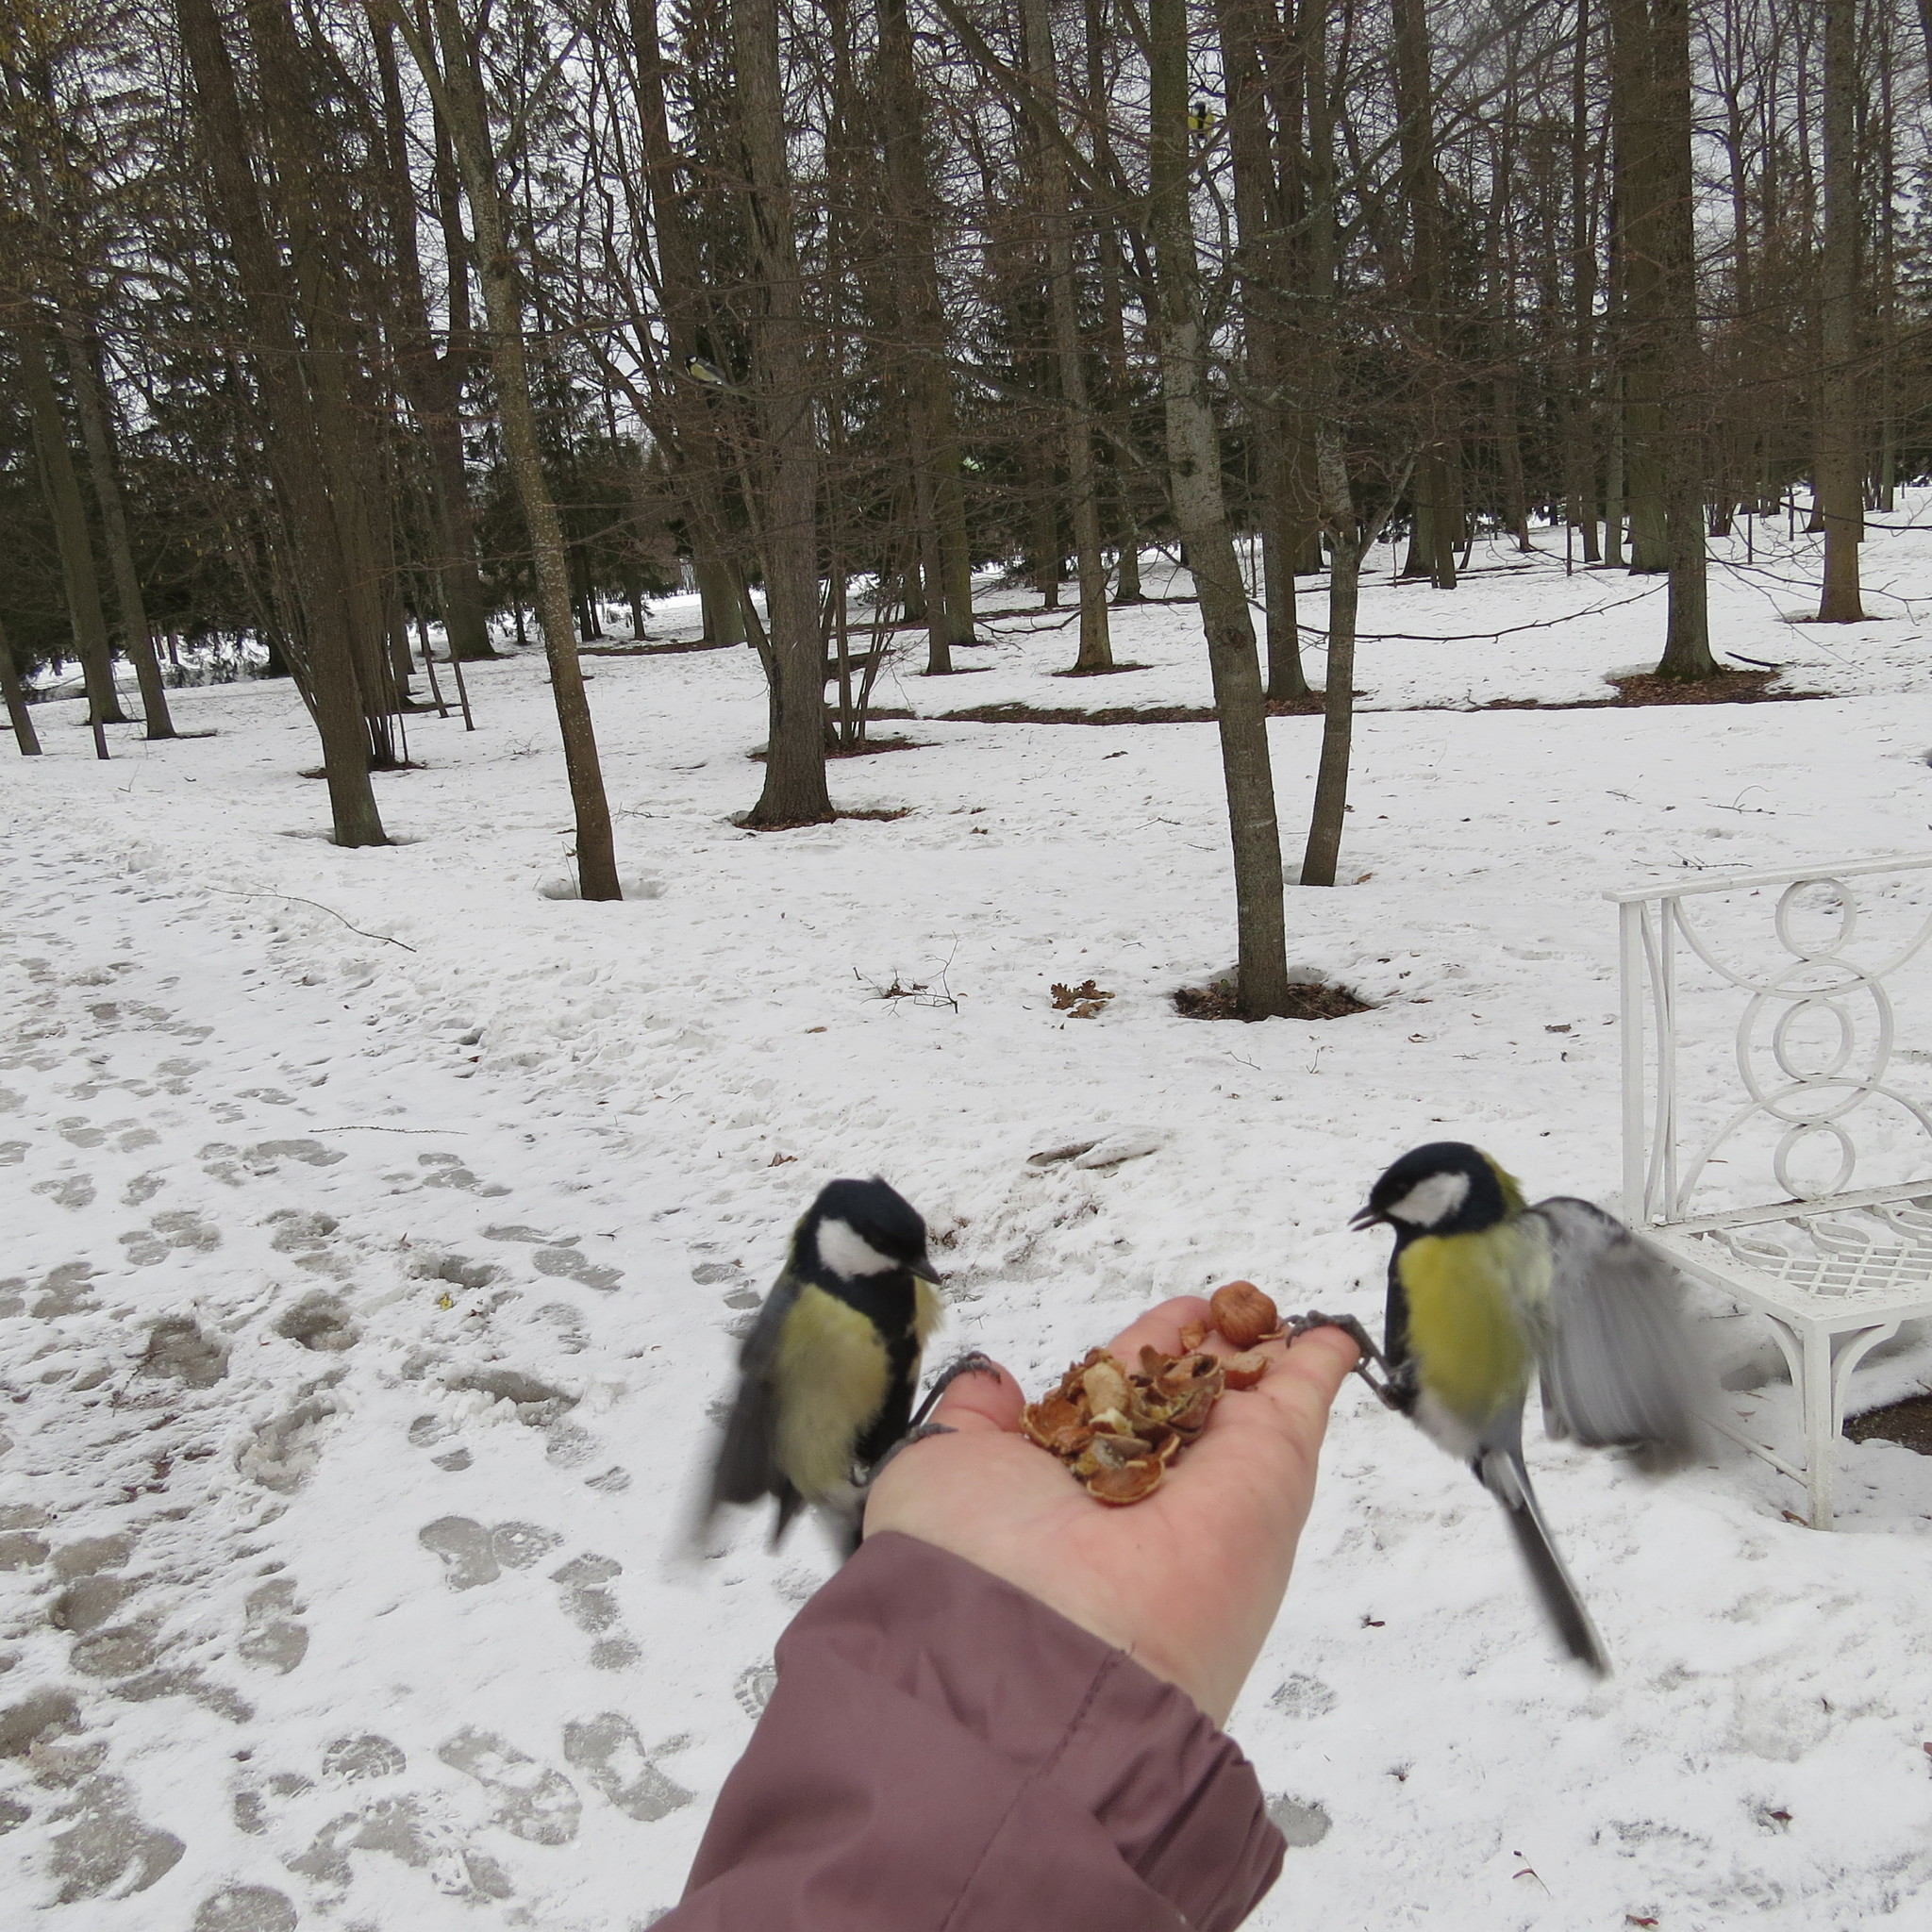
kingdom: Animalia
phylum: Chordata
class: Aves
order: Passeriformes
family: Paridae
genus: Parus
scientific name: Parus major
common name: Great tit
